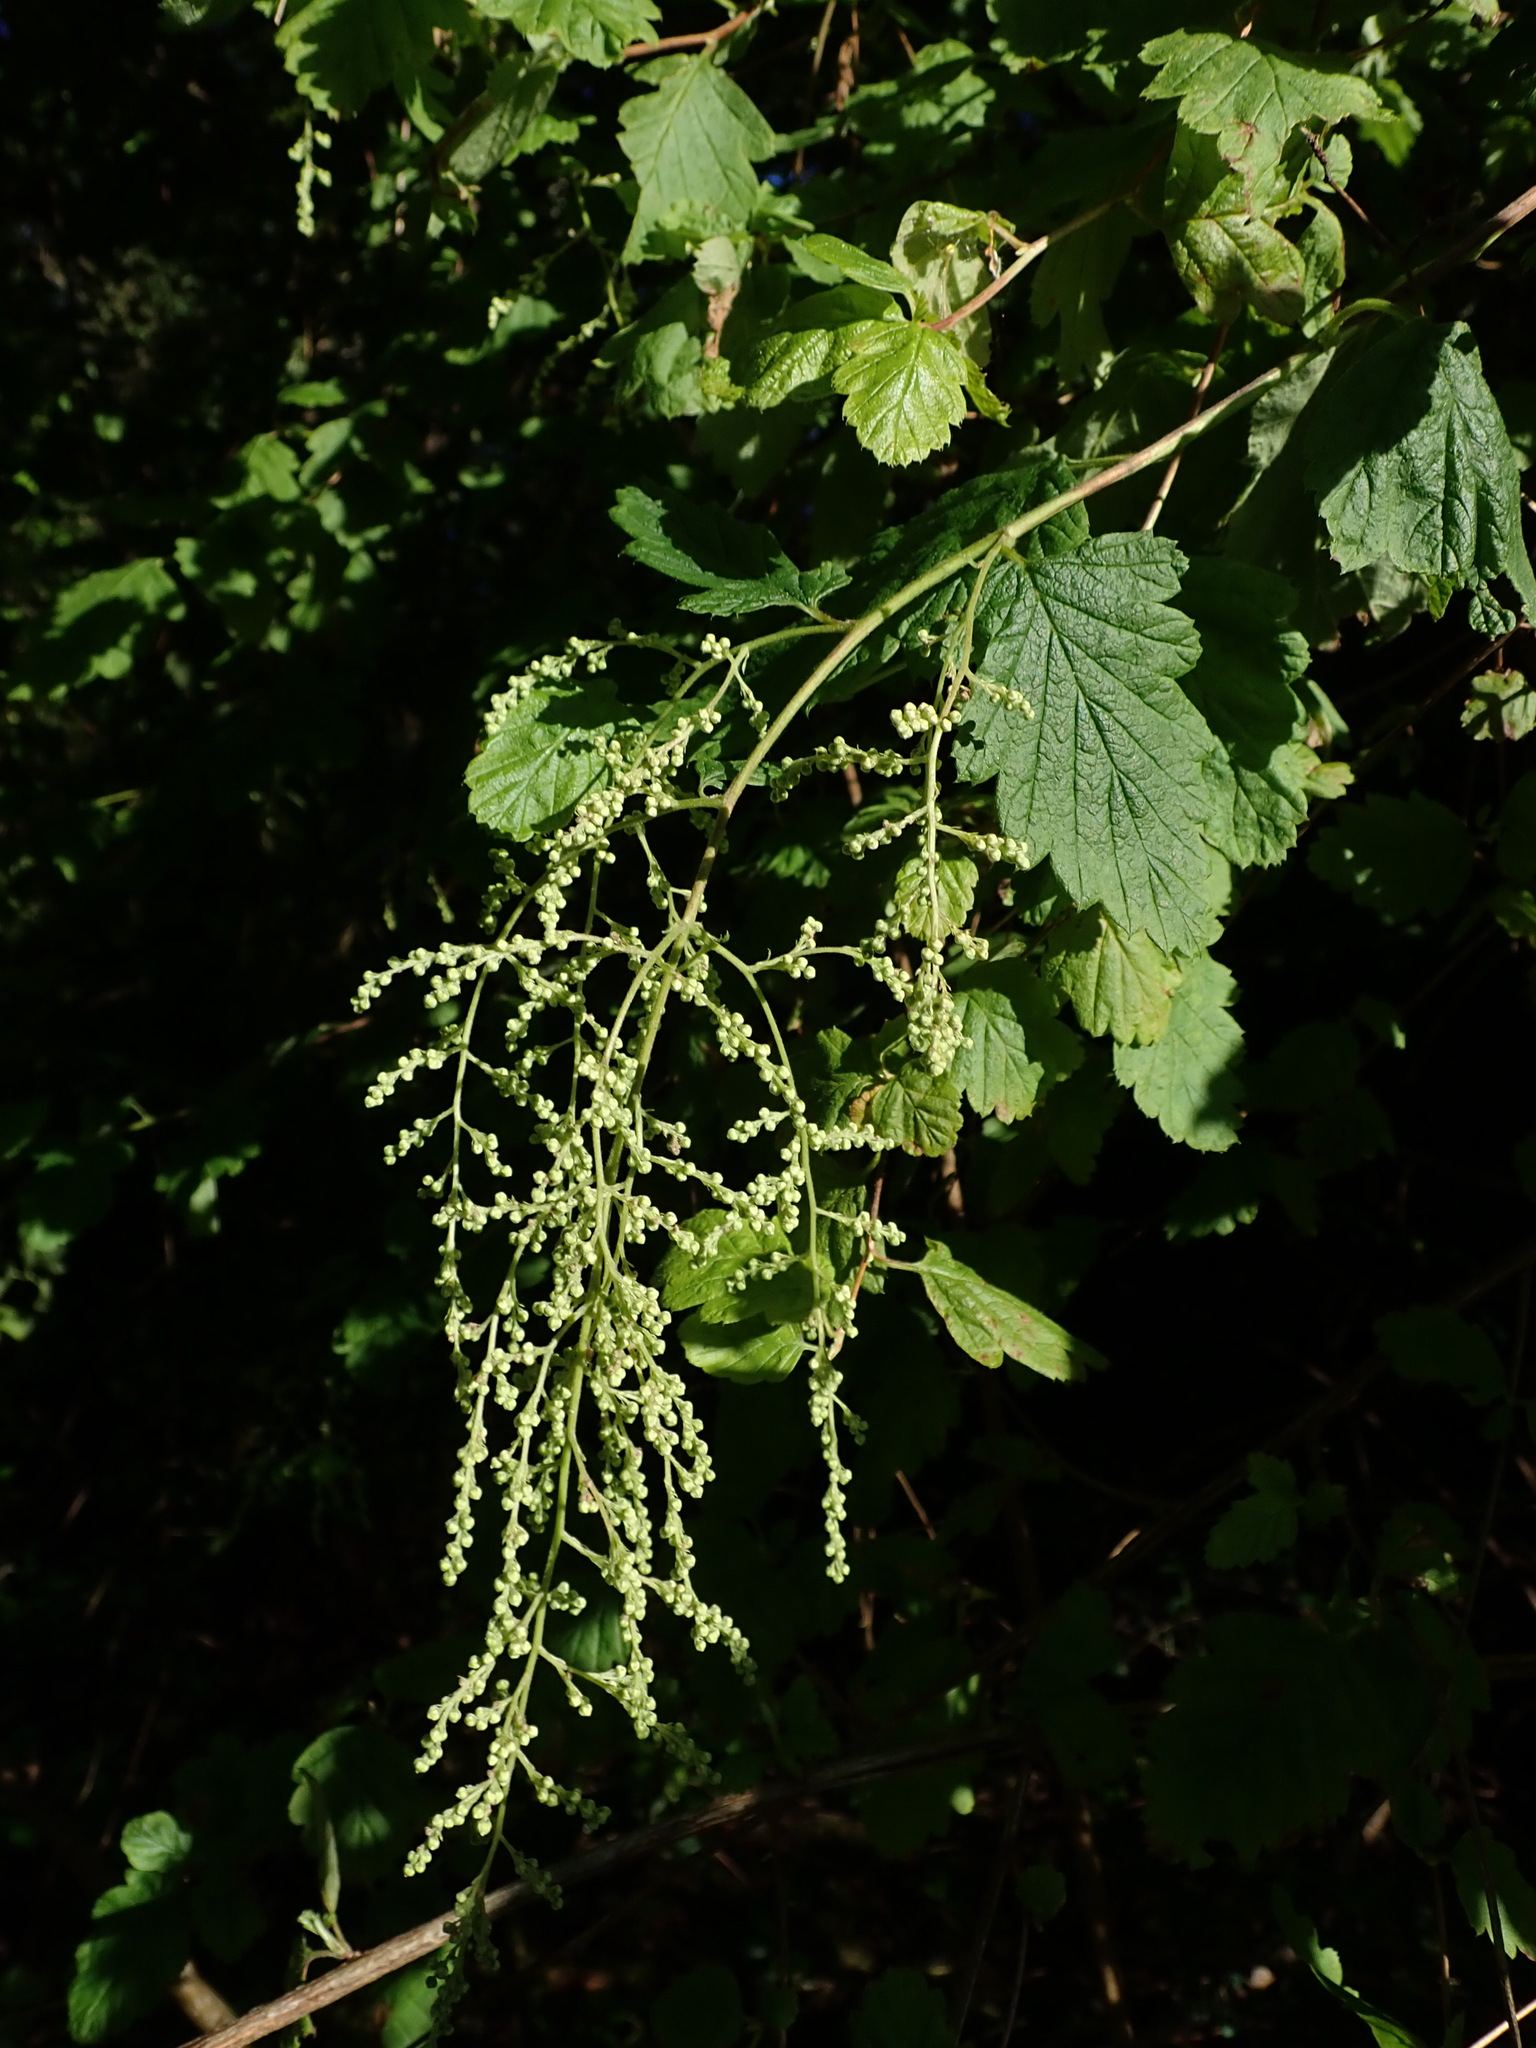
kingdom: Plantae
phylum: Tracheophyta
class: Magnoliopsida
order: Rosales
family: Rosaceae
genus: Holodiscus
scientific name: Holodiscus discolor
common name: Oceanspray
